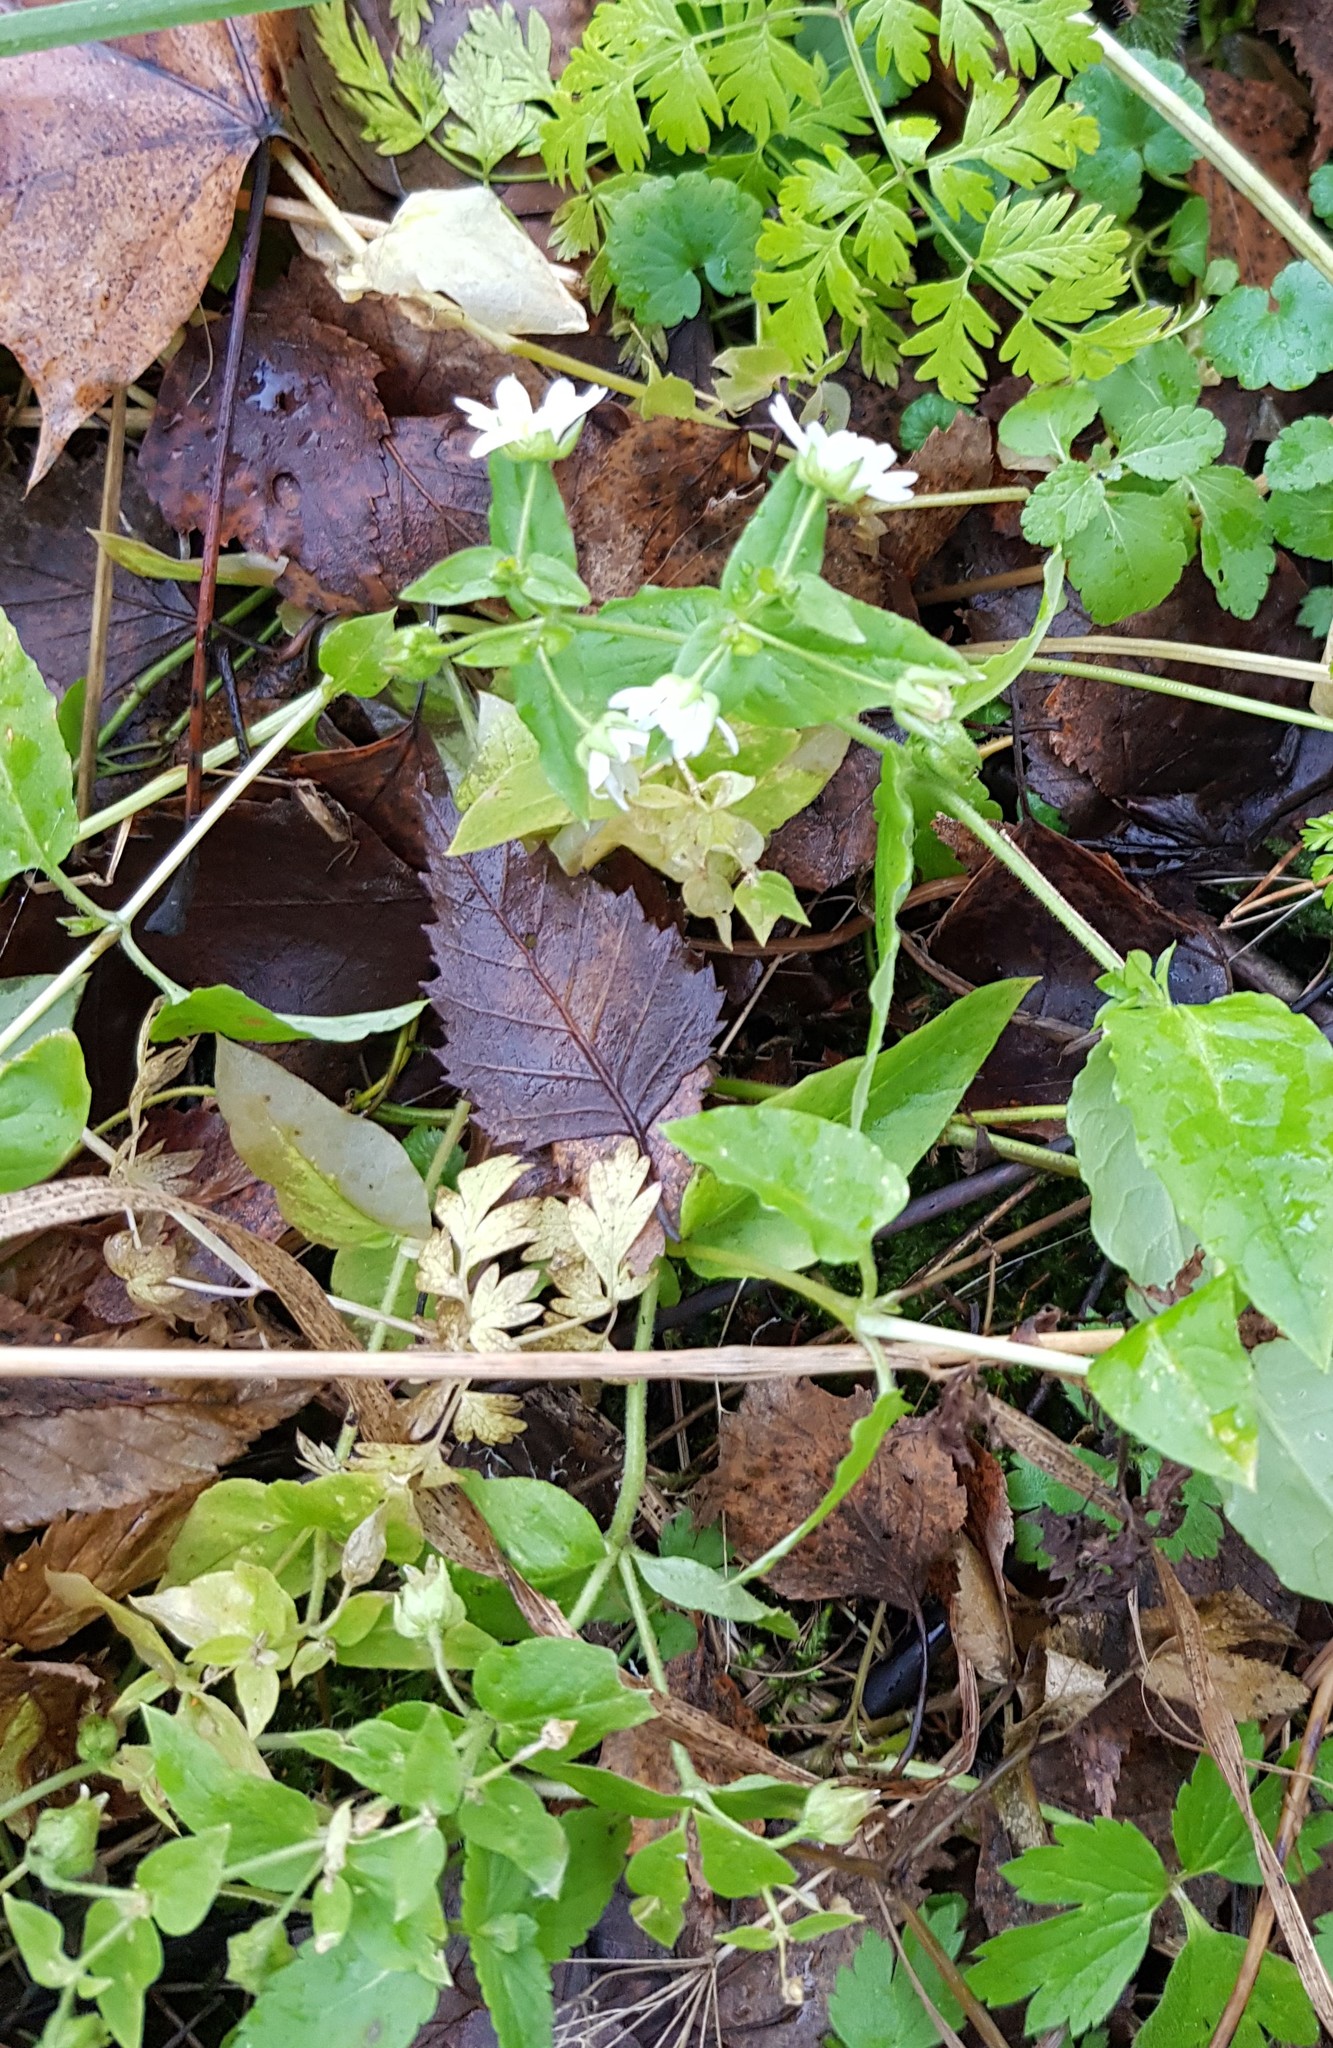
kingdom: Plantae
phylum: Tracheophyta
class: Magnoliopsida
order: Caryophyllales
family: Caryophyllaceae
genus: Stellaria
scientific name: Stellaria aquatica
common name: Water chickweed
